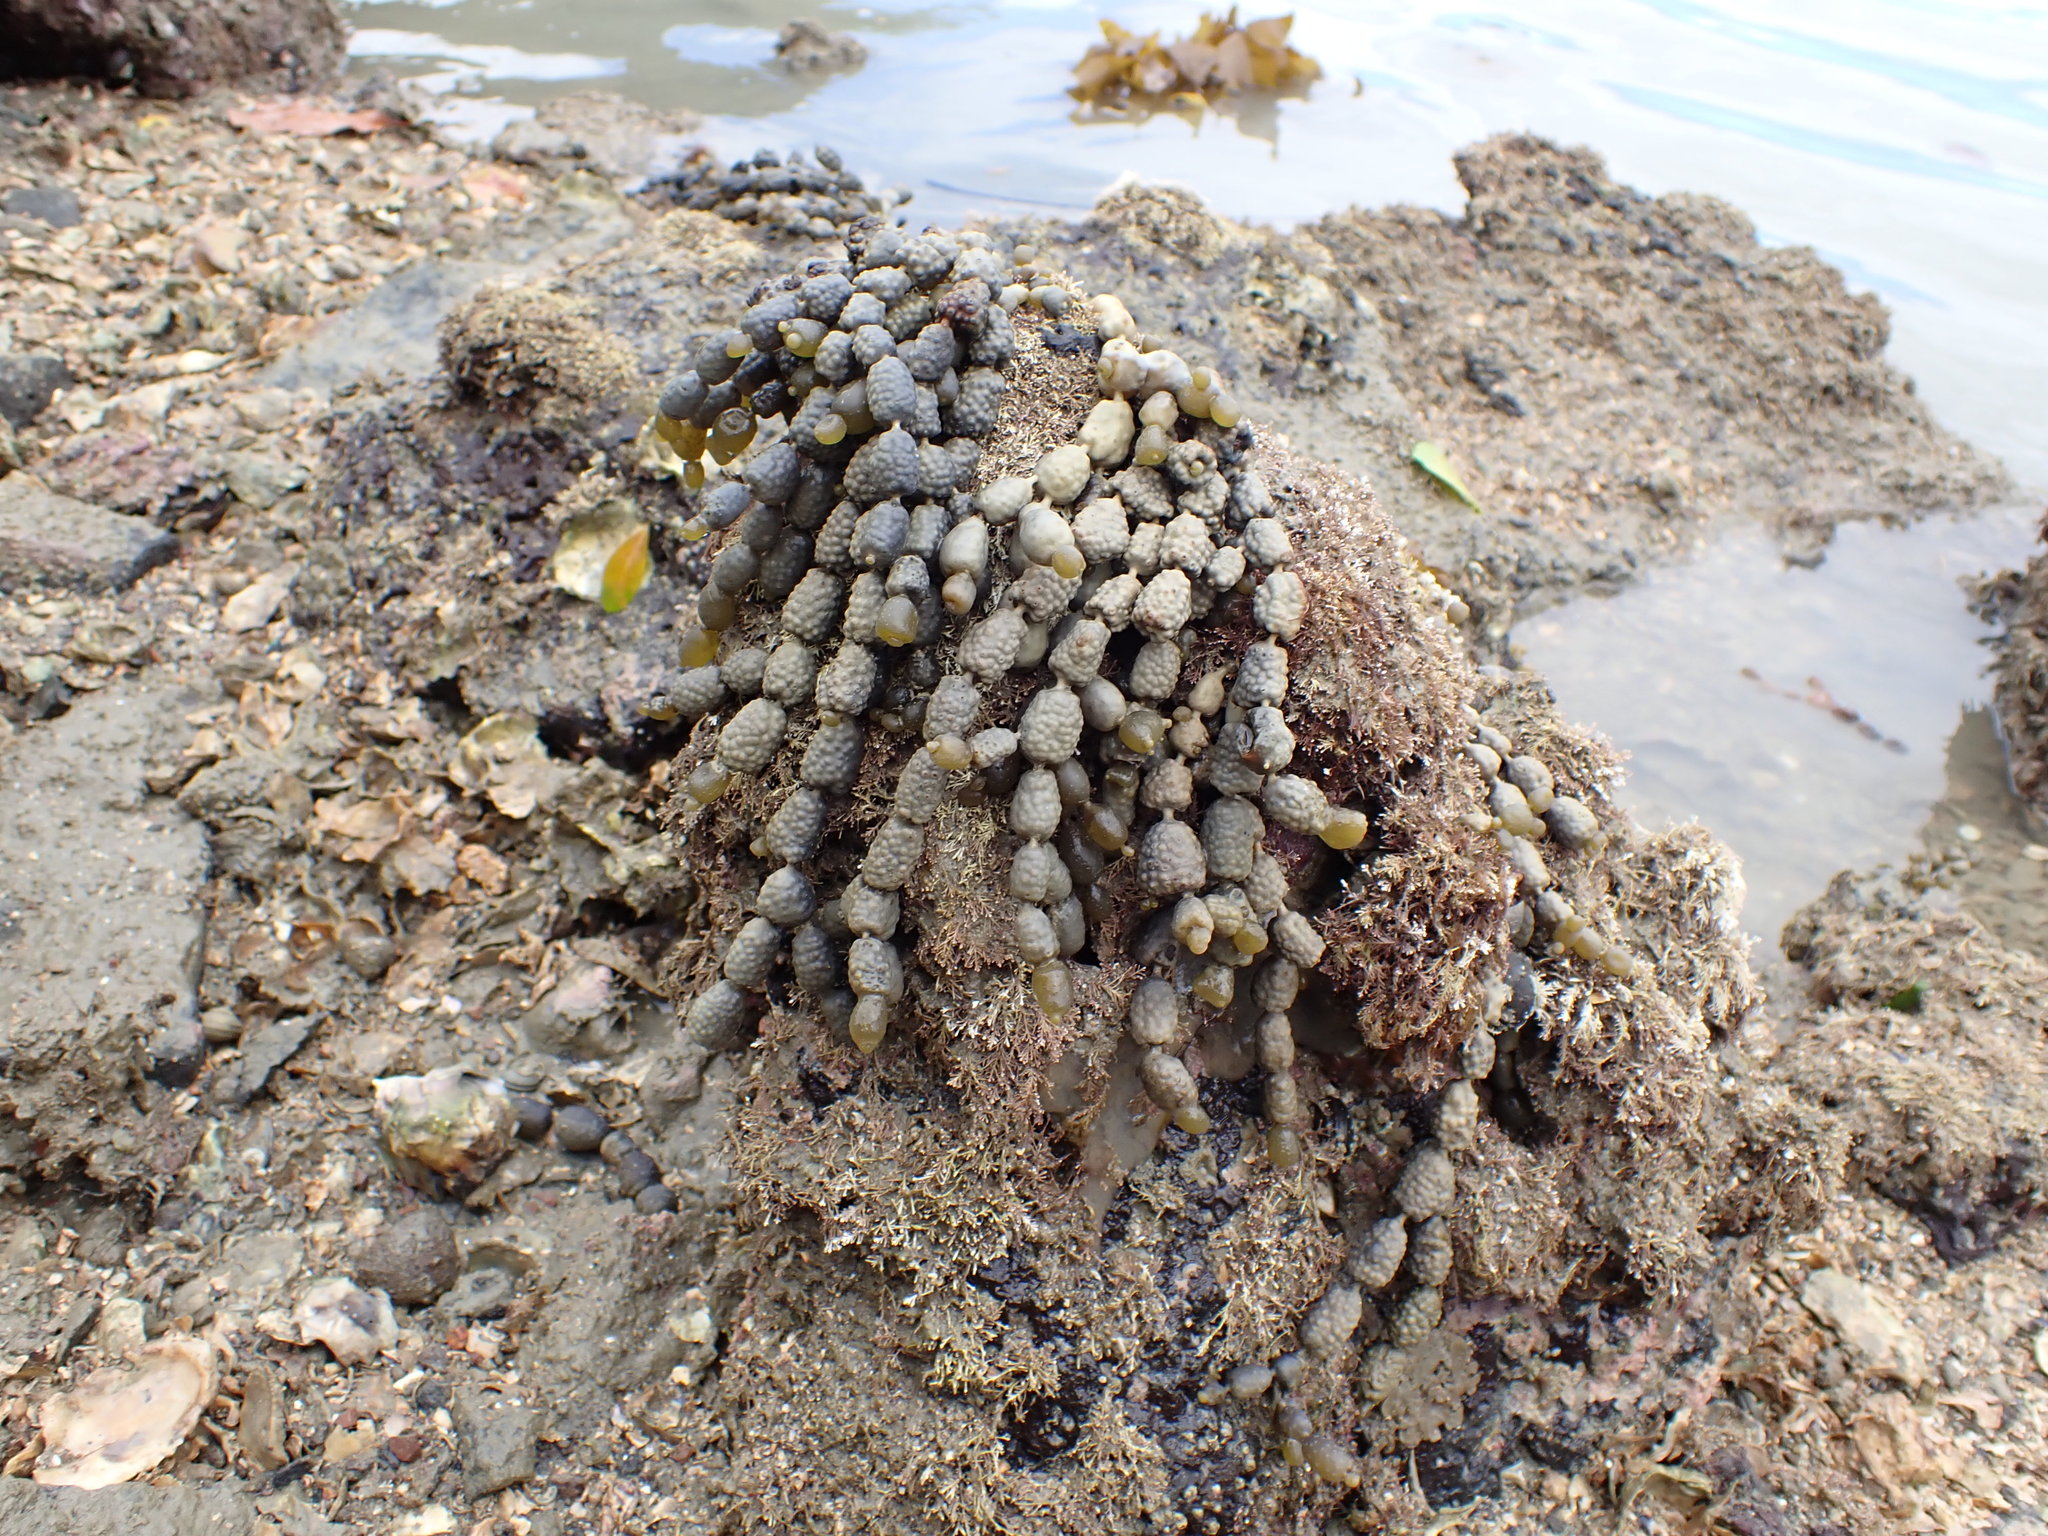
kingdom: Chromista
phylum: Ochrophyta
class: Phaeophyceae
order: Fucales
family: Hormosiraceae
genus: Hormosira
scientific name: Hormosira banksii
